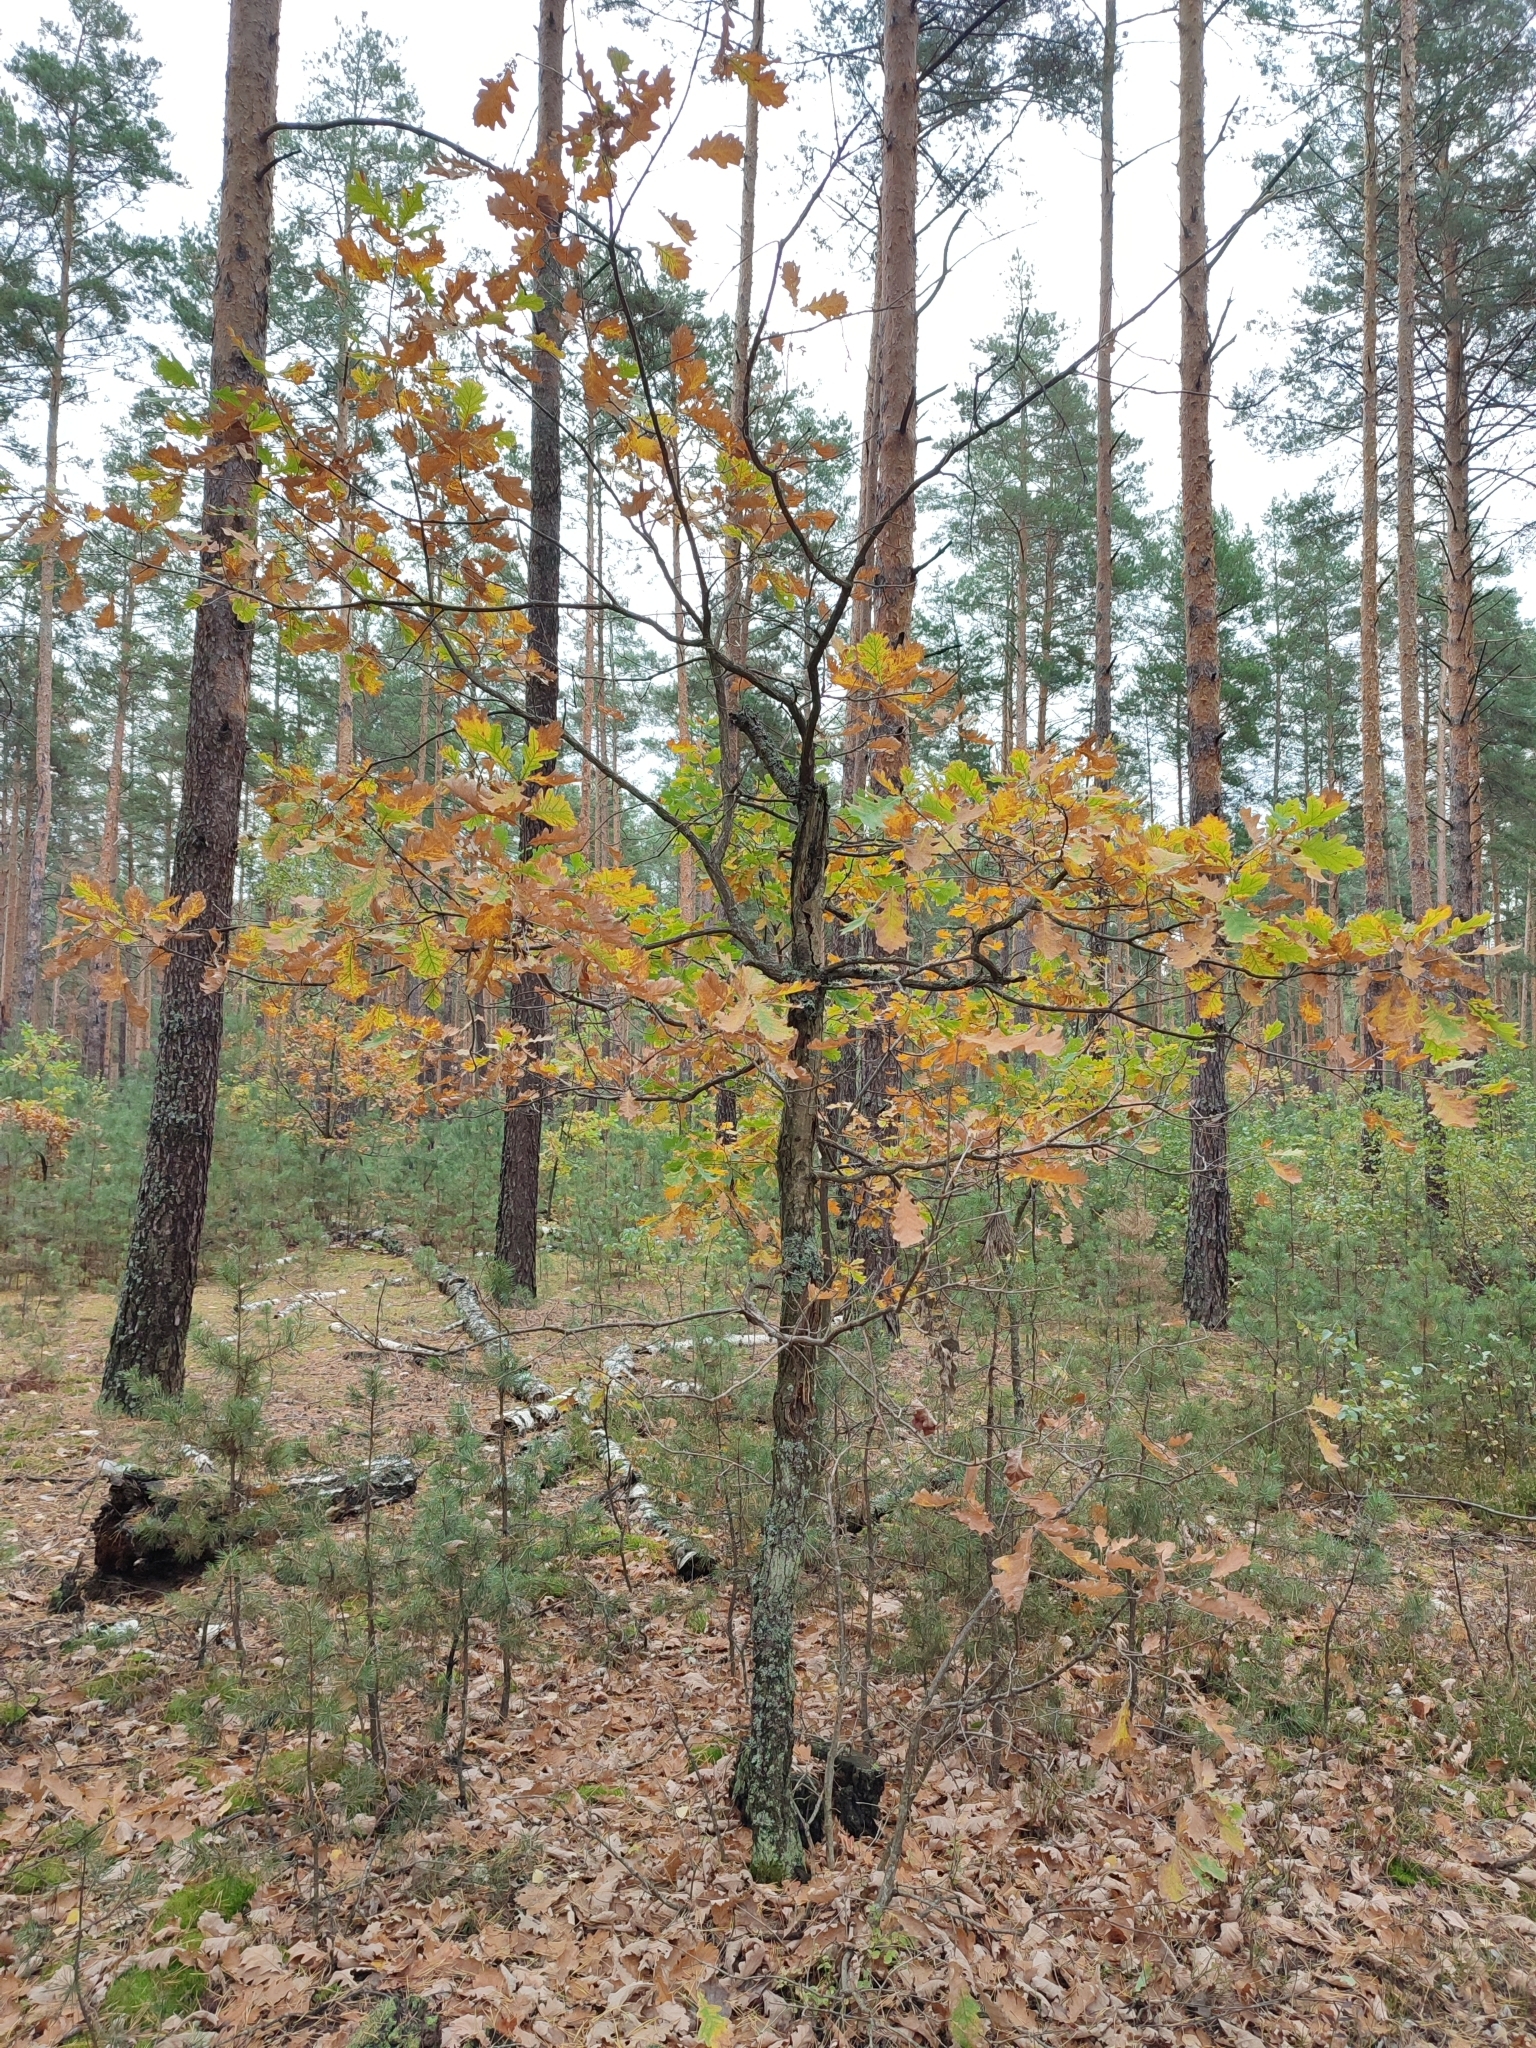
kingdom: Plantae
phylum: Tracheophyta
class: Magnoliopsida
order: Fagales
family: Fagaceae
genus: Quercus
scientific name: Quercus robur
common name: Pedunculate oak
